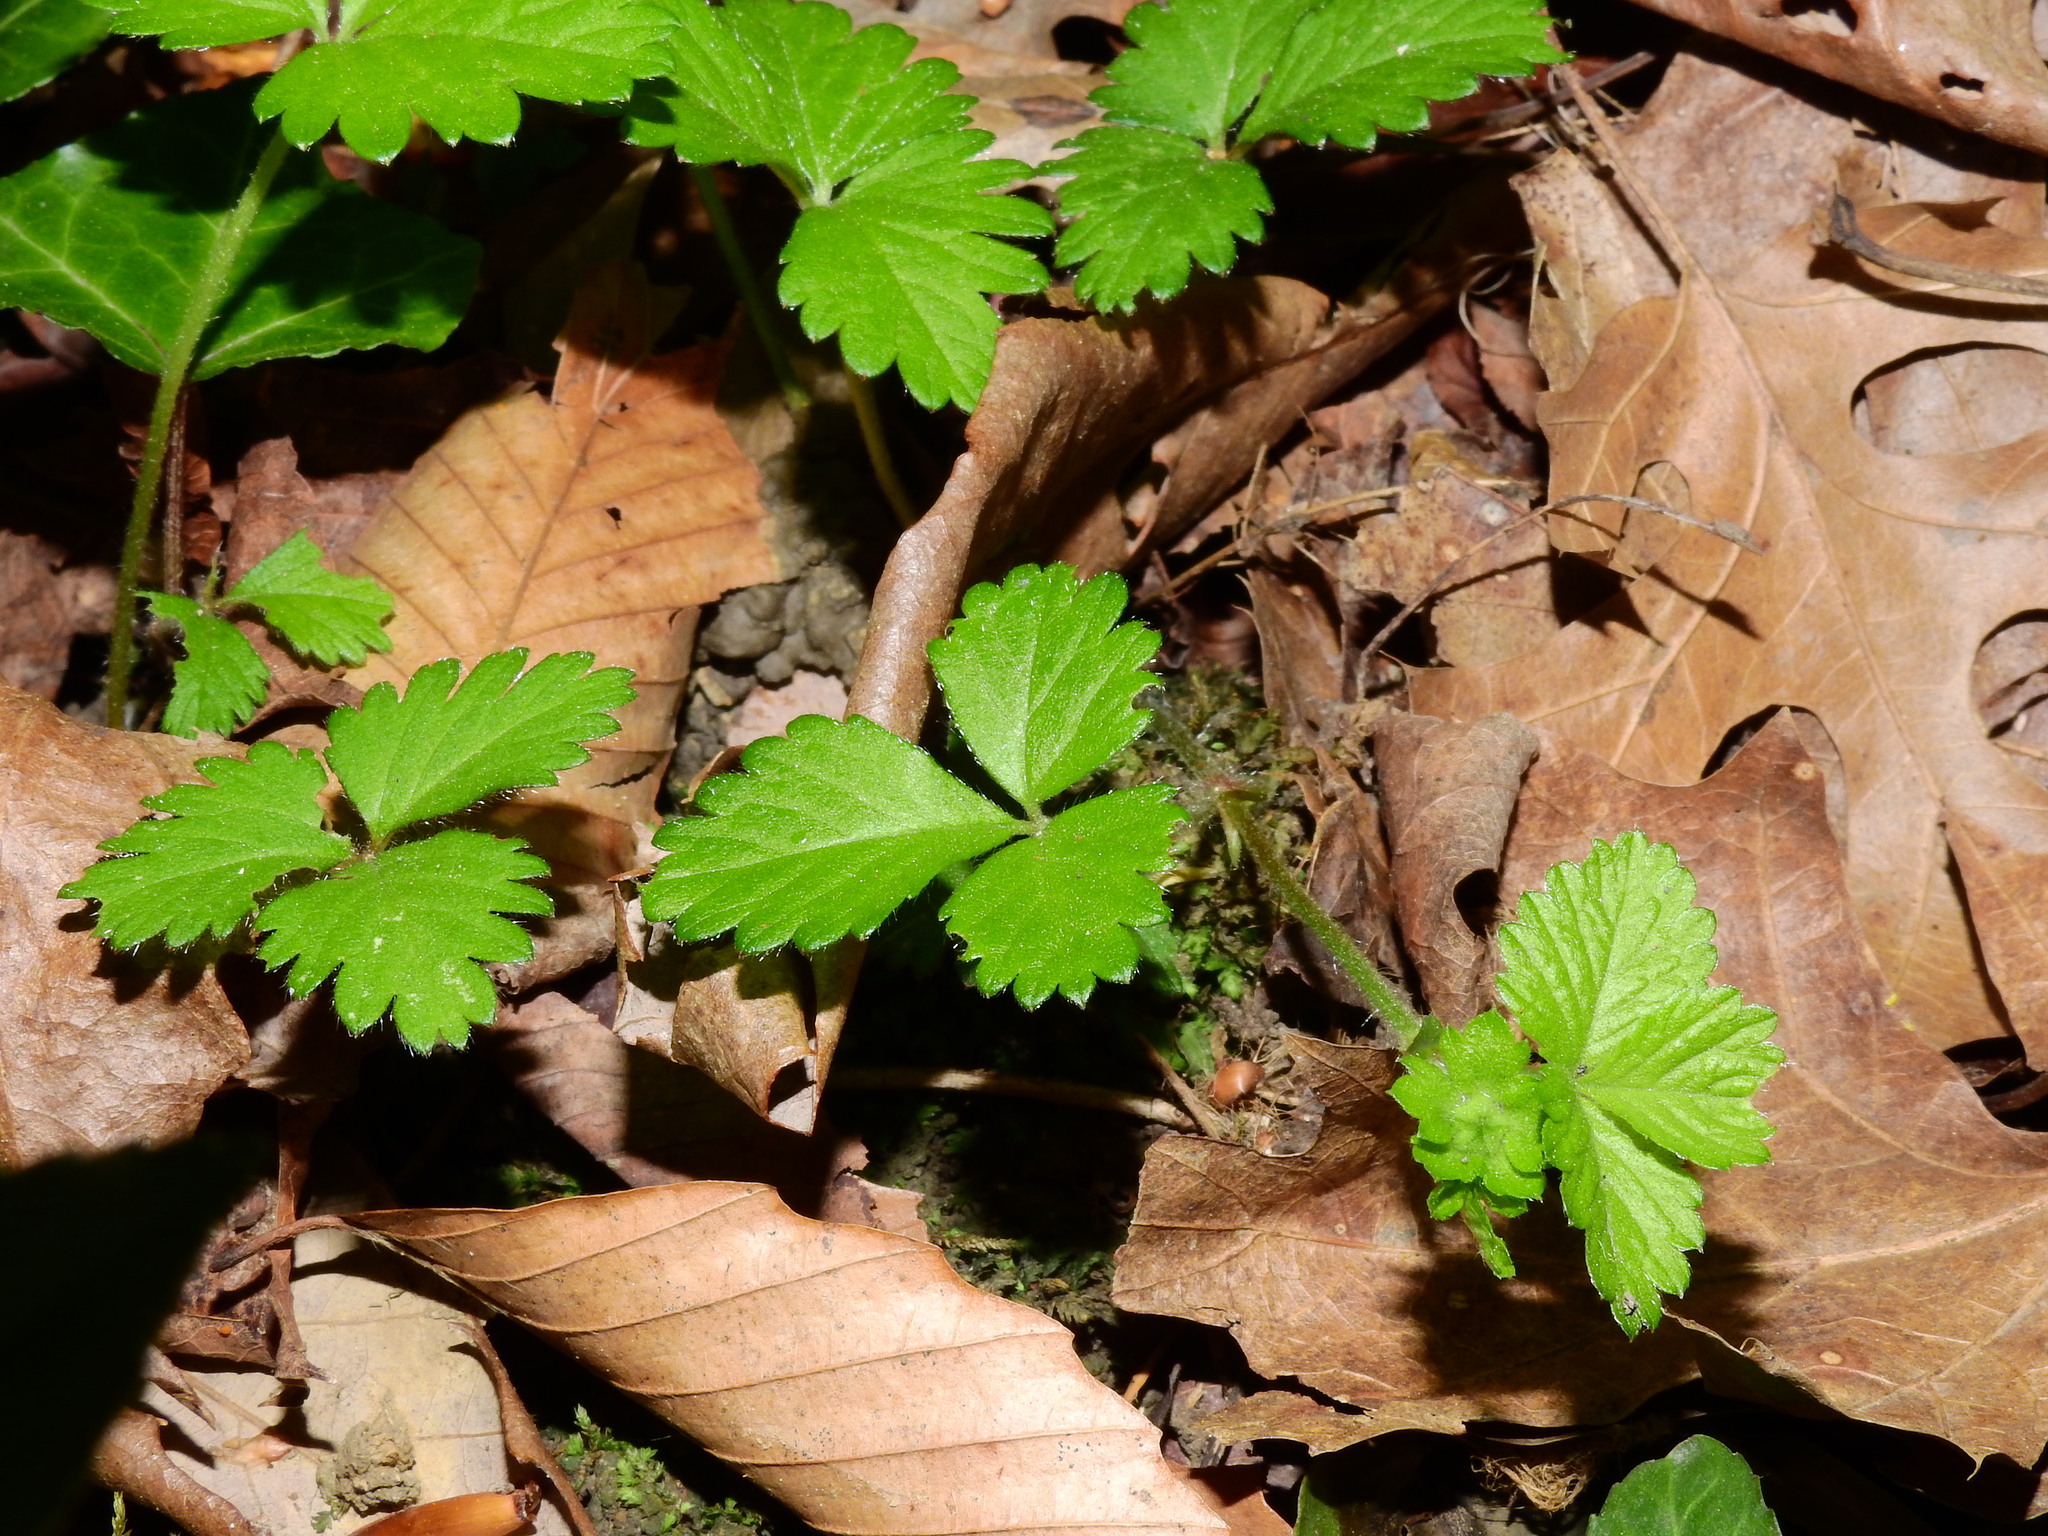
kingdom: Plantae
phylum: Tracheophyta
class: Magnoliopsida
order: Rosales
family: Rosaceae
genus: Potentilla
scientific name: Potentilla indica
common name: Yellow-flowered strawberry
